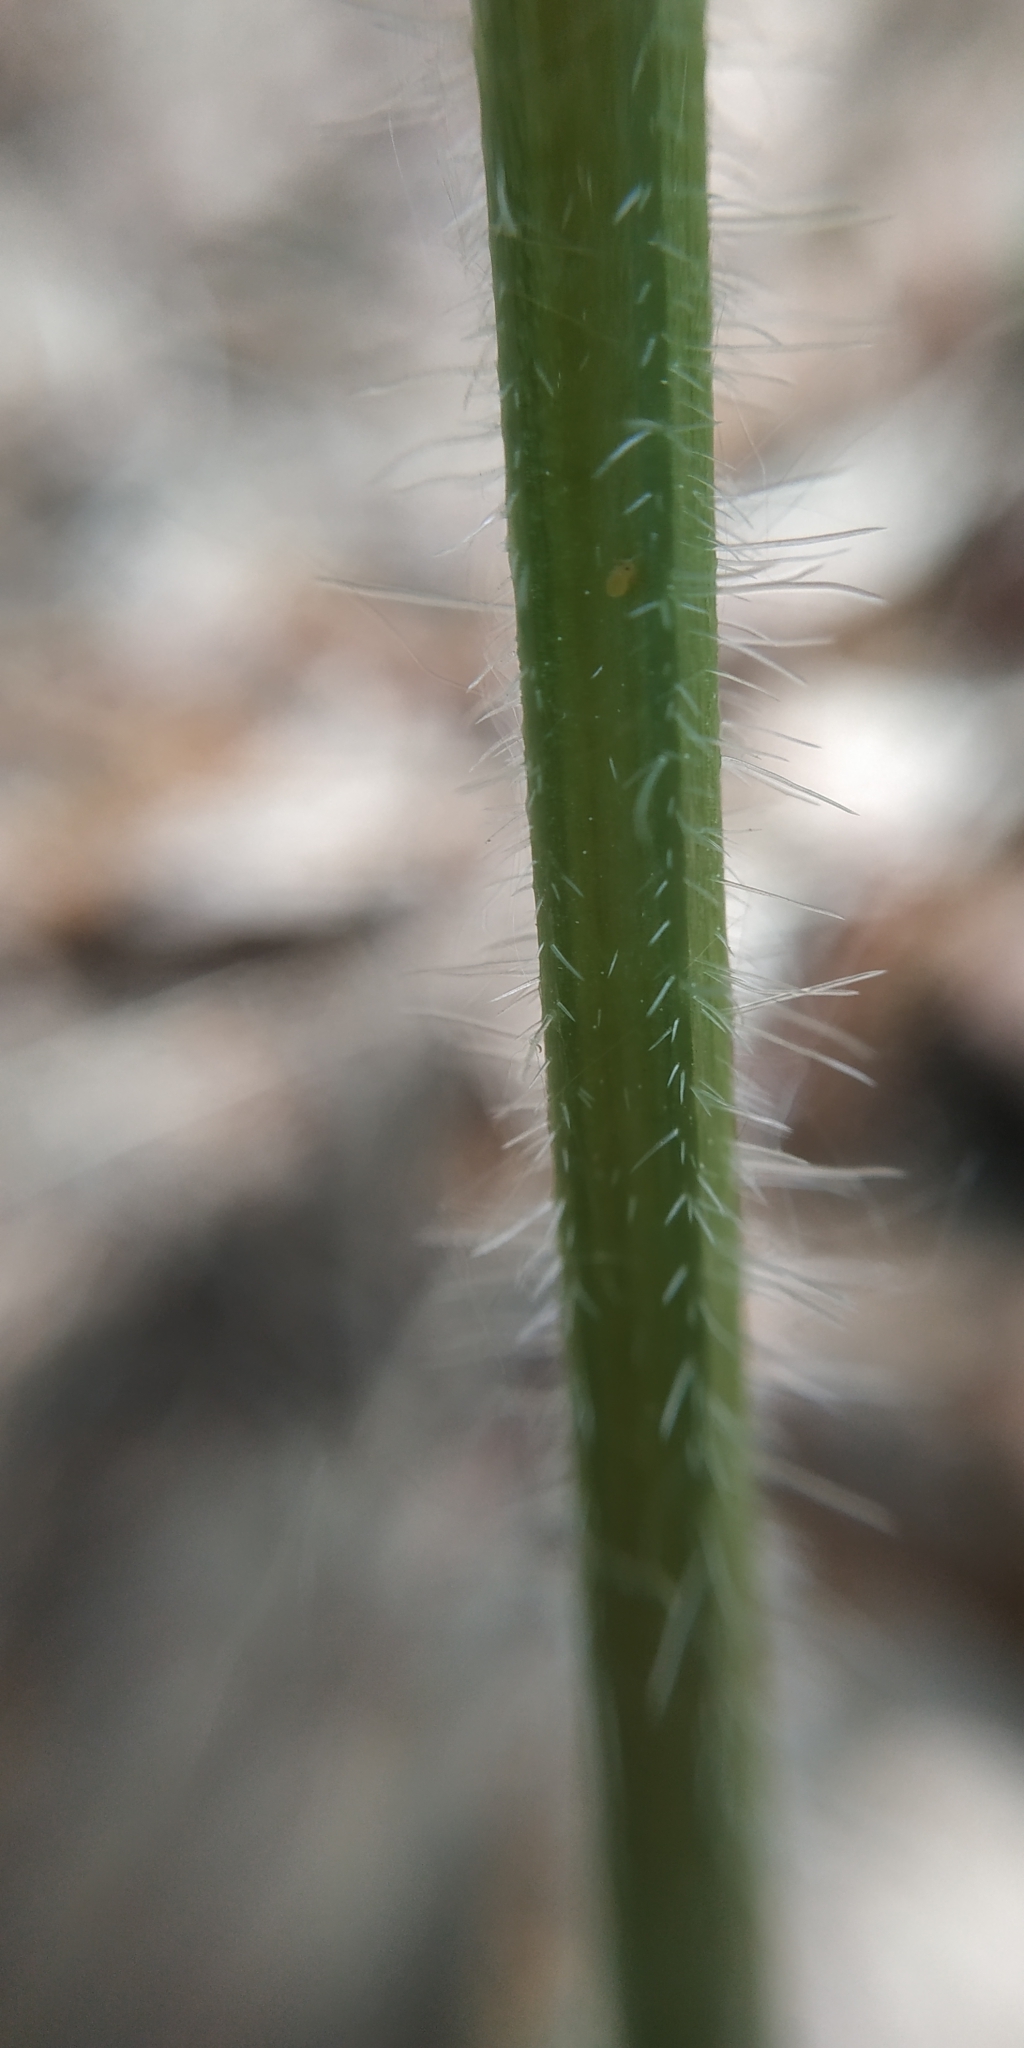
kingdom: Plantae
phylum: Tracheophyta
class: Magnoliopsida
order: Apiales
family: Apiaceae
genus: Heracleum
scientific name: Heracleum sphondylium
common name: Hogweed
